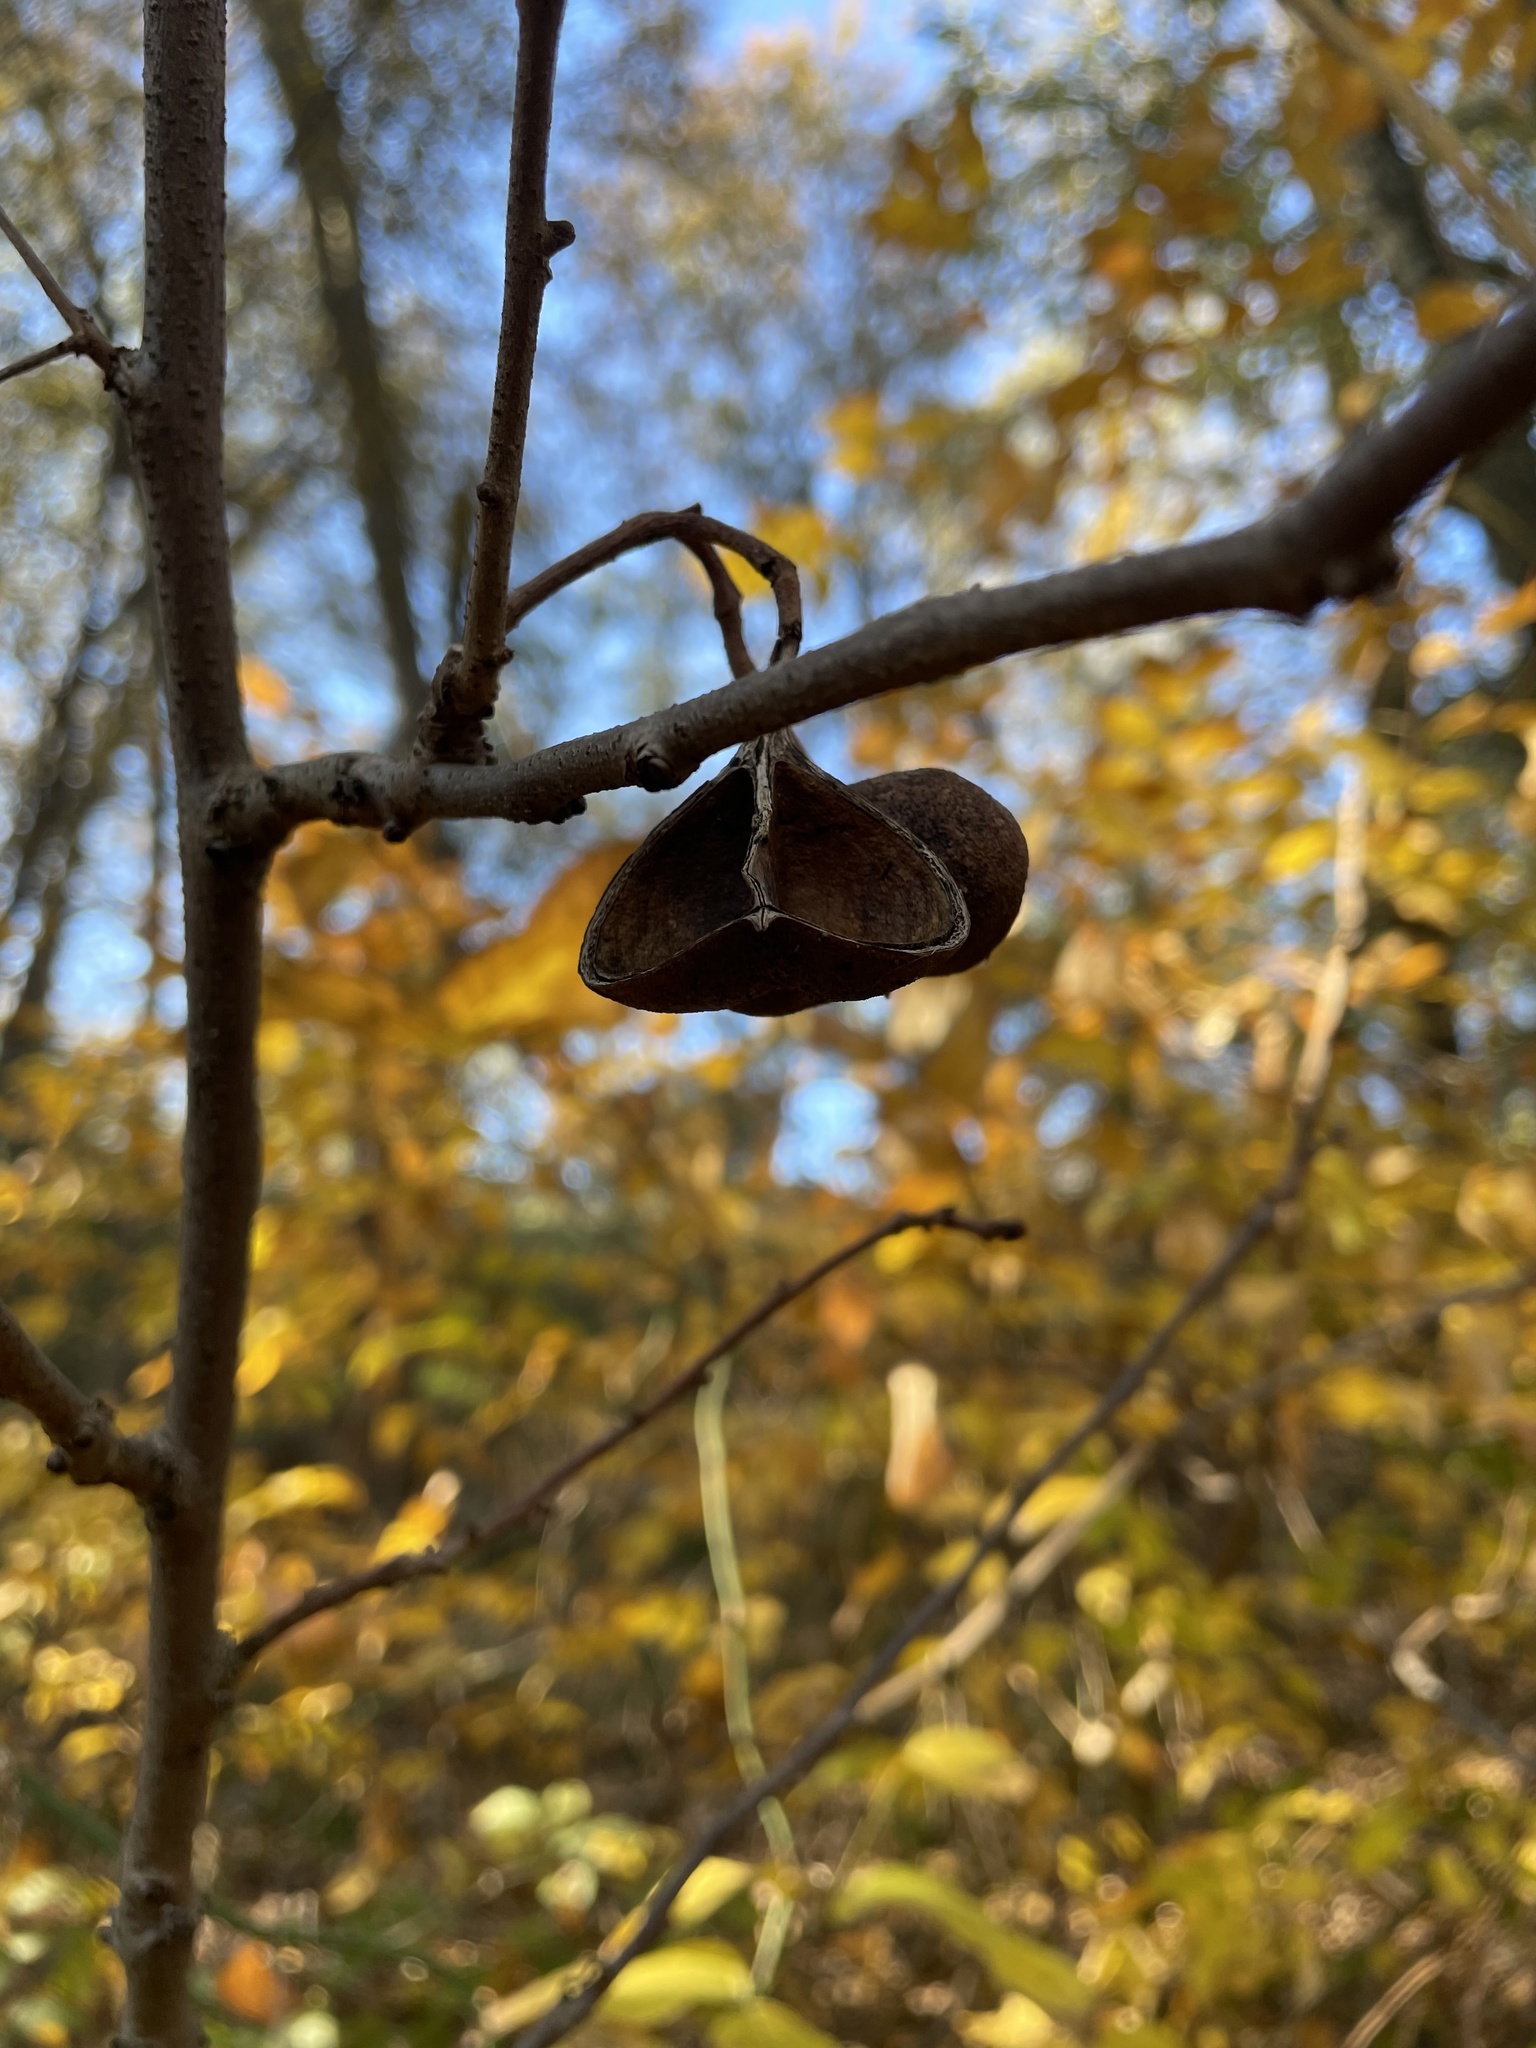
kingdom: Plantae
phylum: Tracheophyta
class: Magnoliopsida
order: Sapindales
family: Sapindaceae
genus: Ungnadia
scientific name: Ungnadia speciosa
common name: Texas-buckeye
